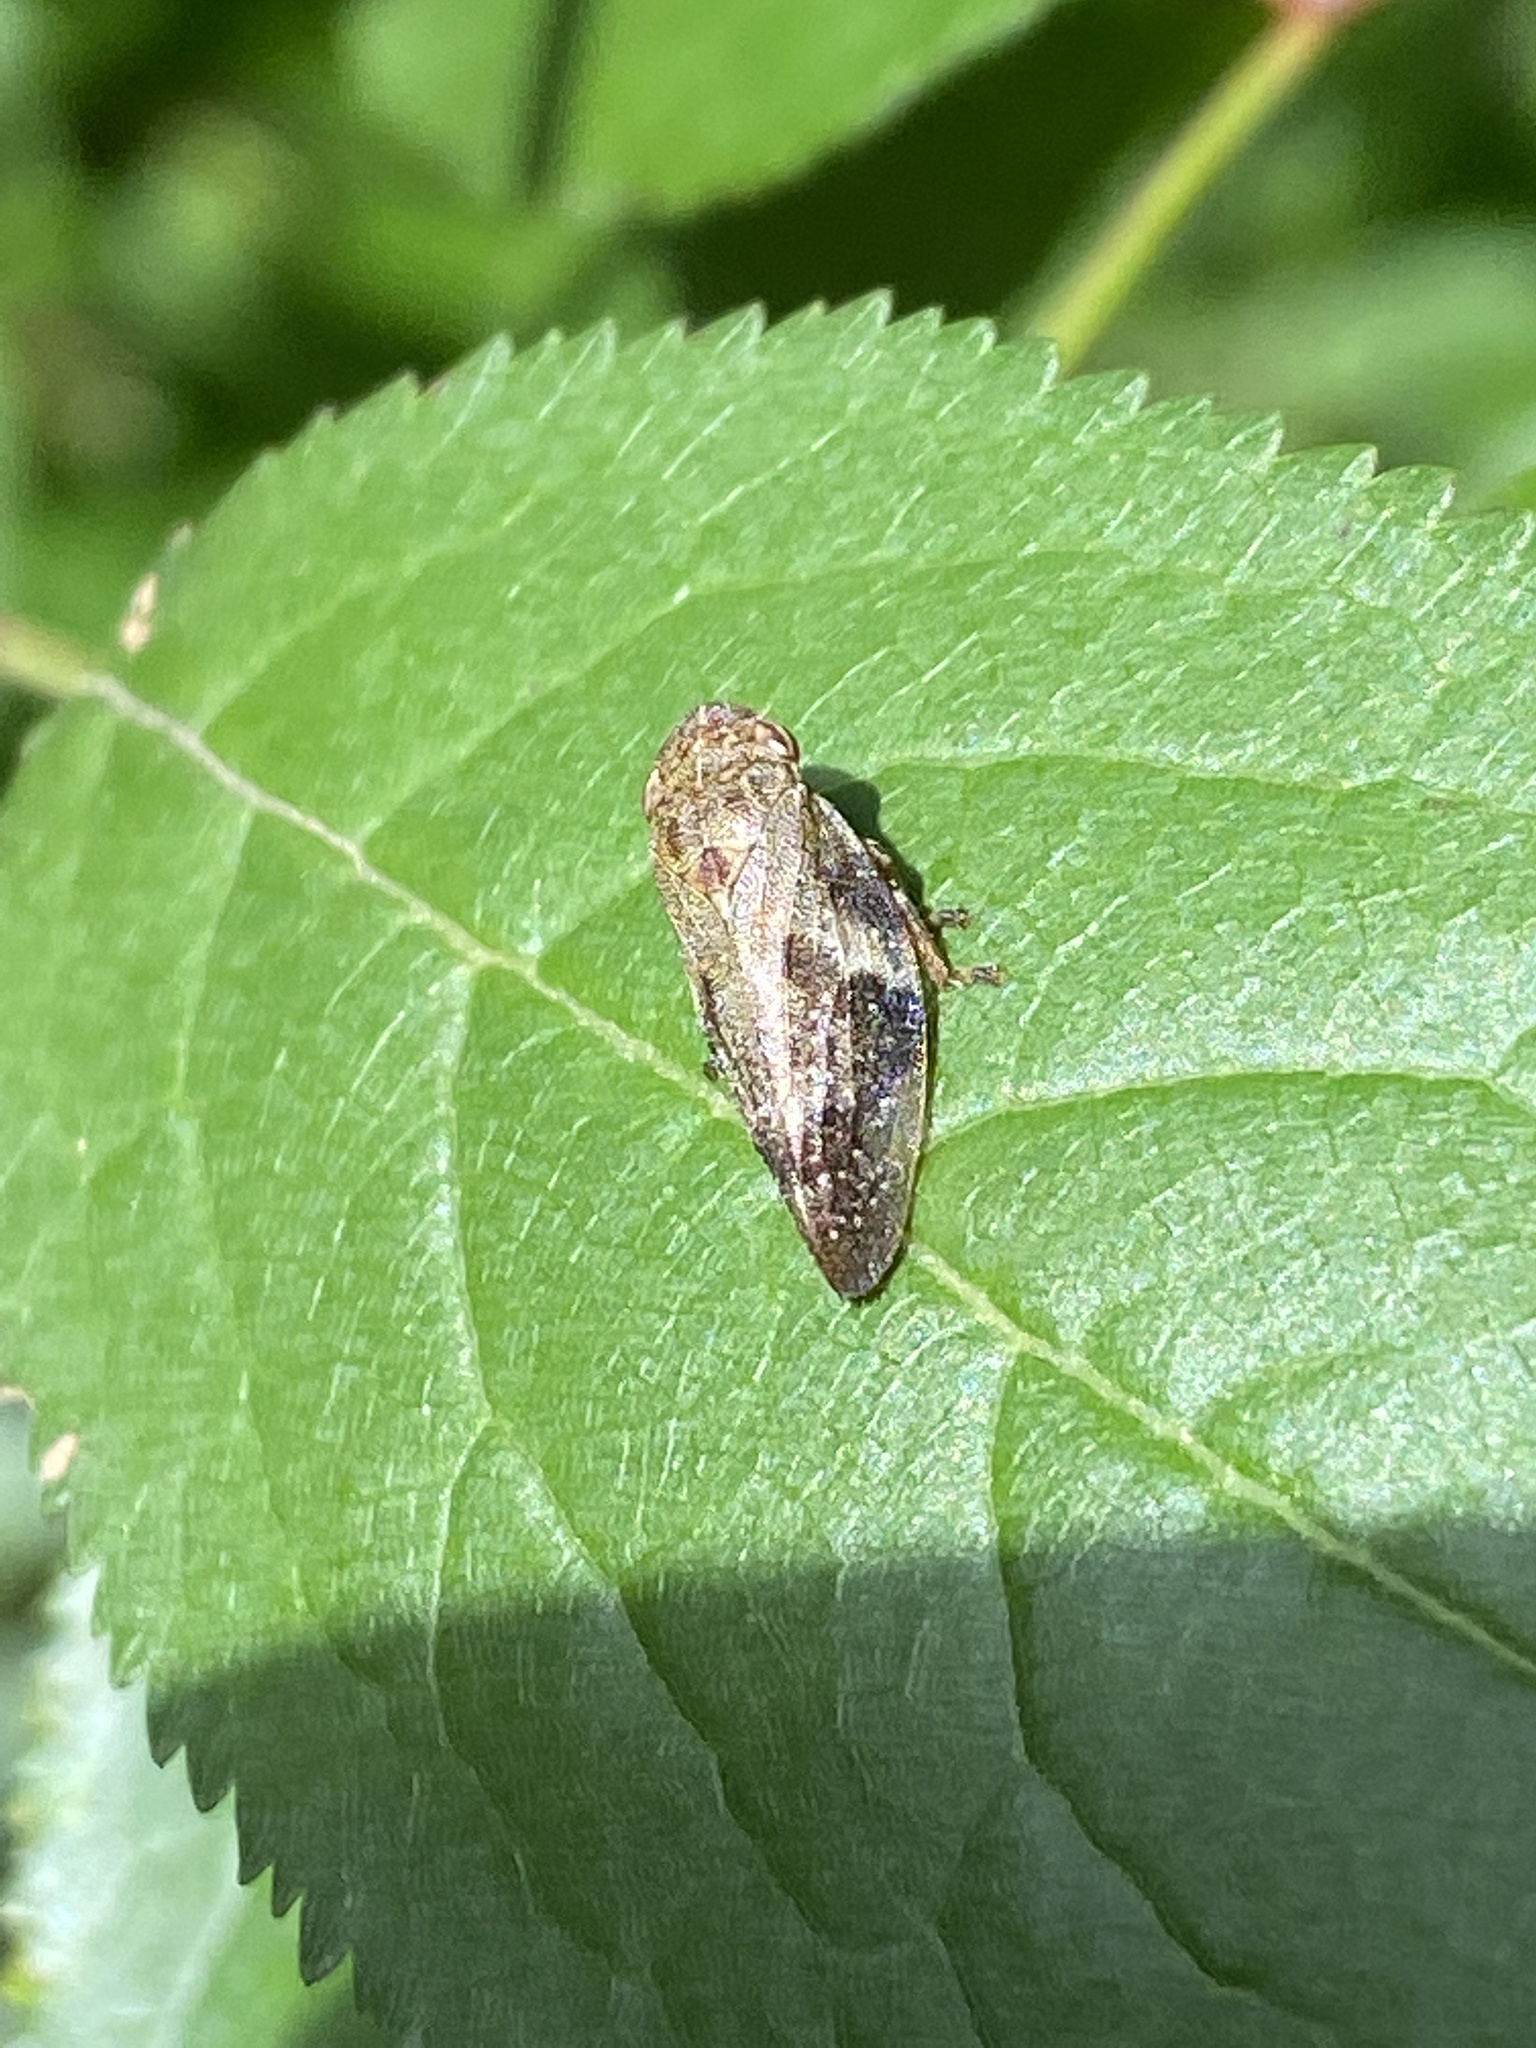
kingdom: Animalia
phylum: Arthropoda
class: Insecta
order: Hemiptera
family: Aphrophoridae
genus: Aphrophora
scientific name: Aphrophora alni
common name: European alder spittlebug
